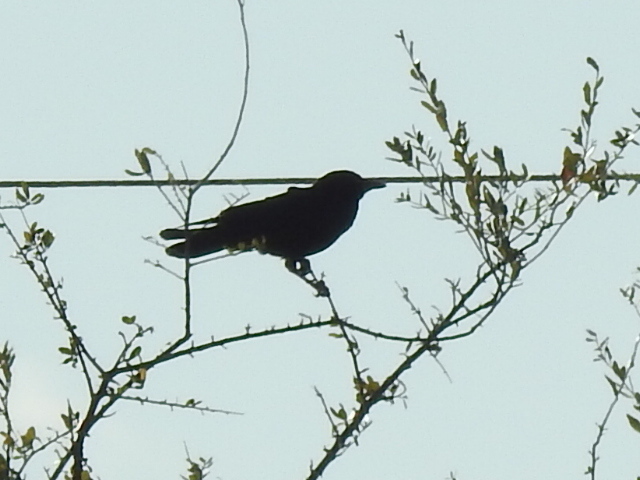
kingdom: Animalia
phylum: Chordata
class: Aves
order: Passeriformes
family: Corvidae
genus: Corvus
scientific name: Corvus brachyrhynchos
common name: American crow
